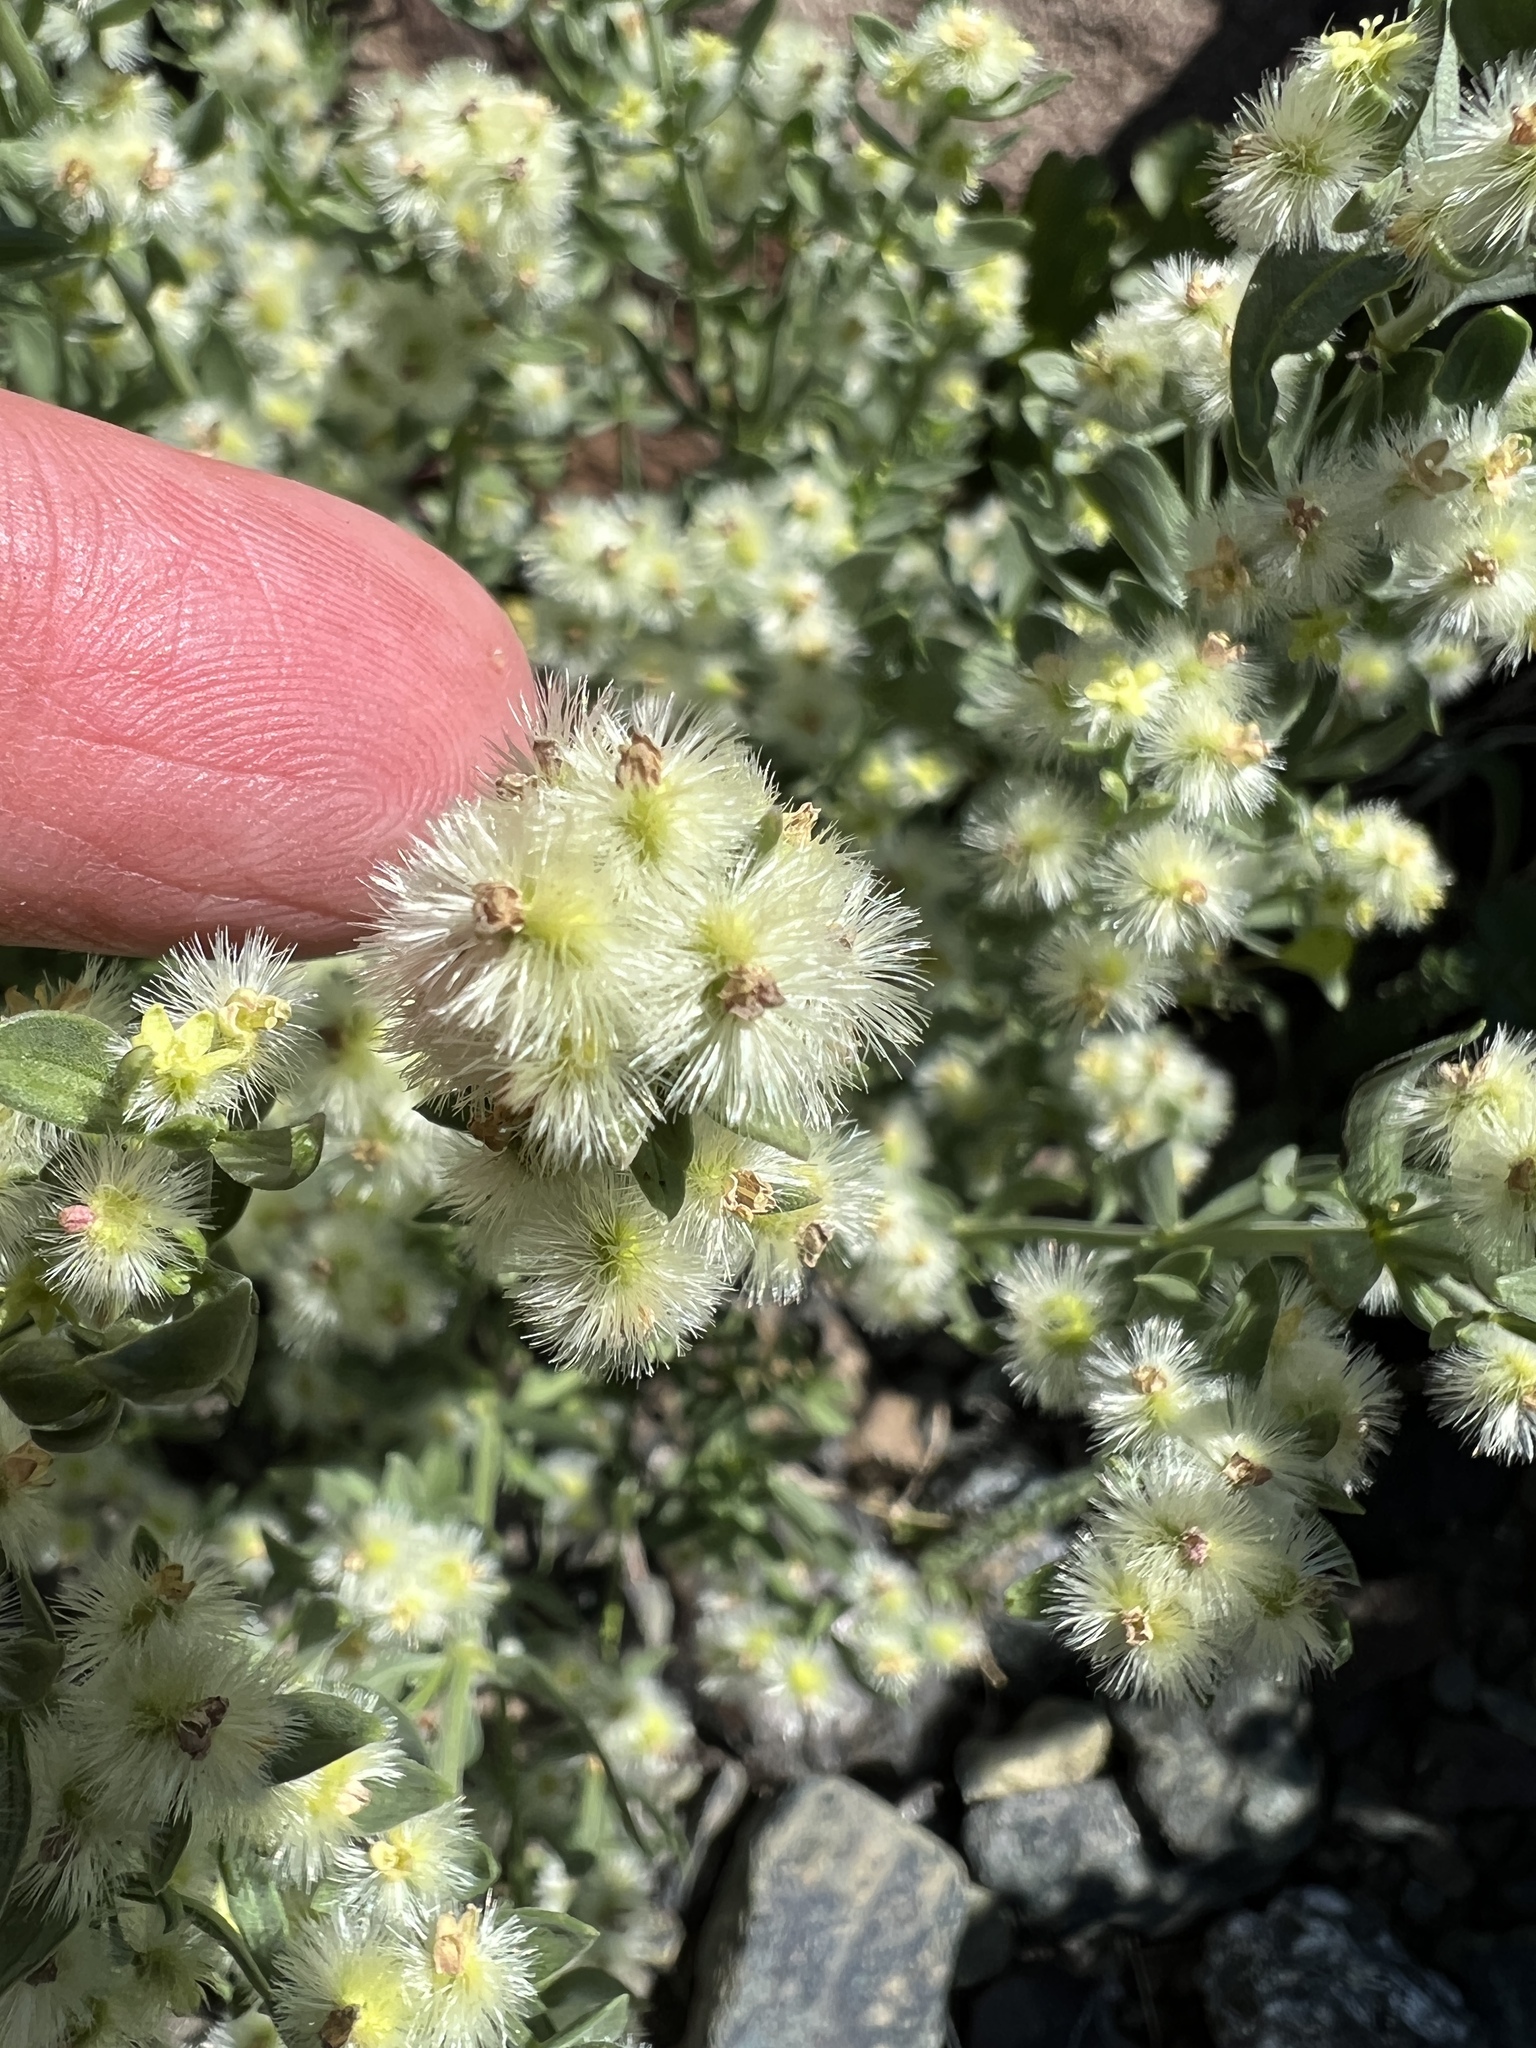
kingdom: Plantae
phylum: Tracheophyta
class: Magnoliopsida
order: Gentianales
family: Rubiaceae
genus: Galium
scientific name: Galium serpenticum
